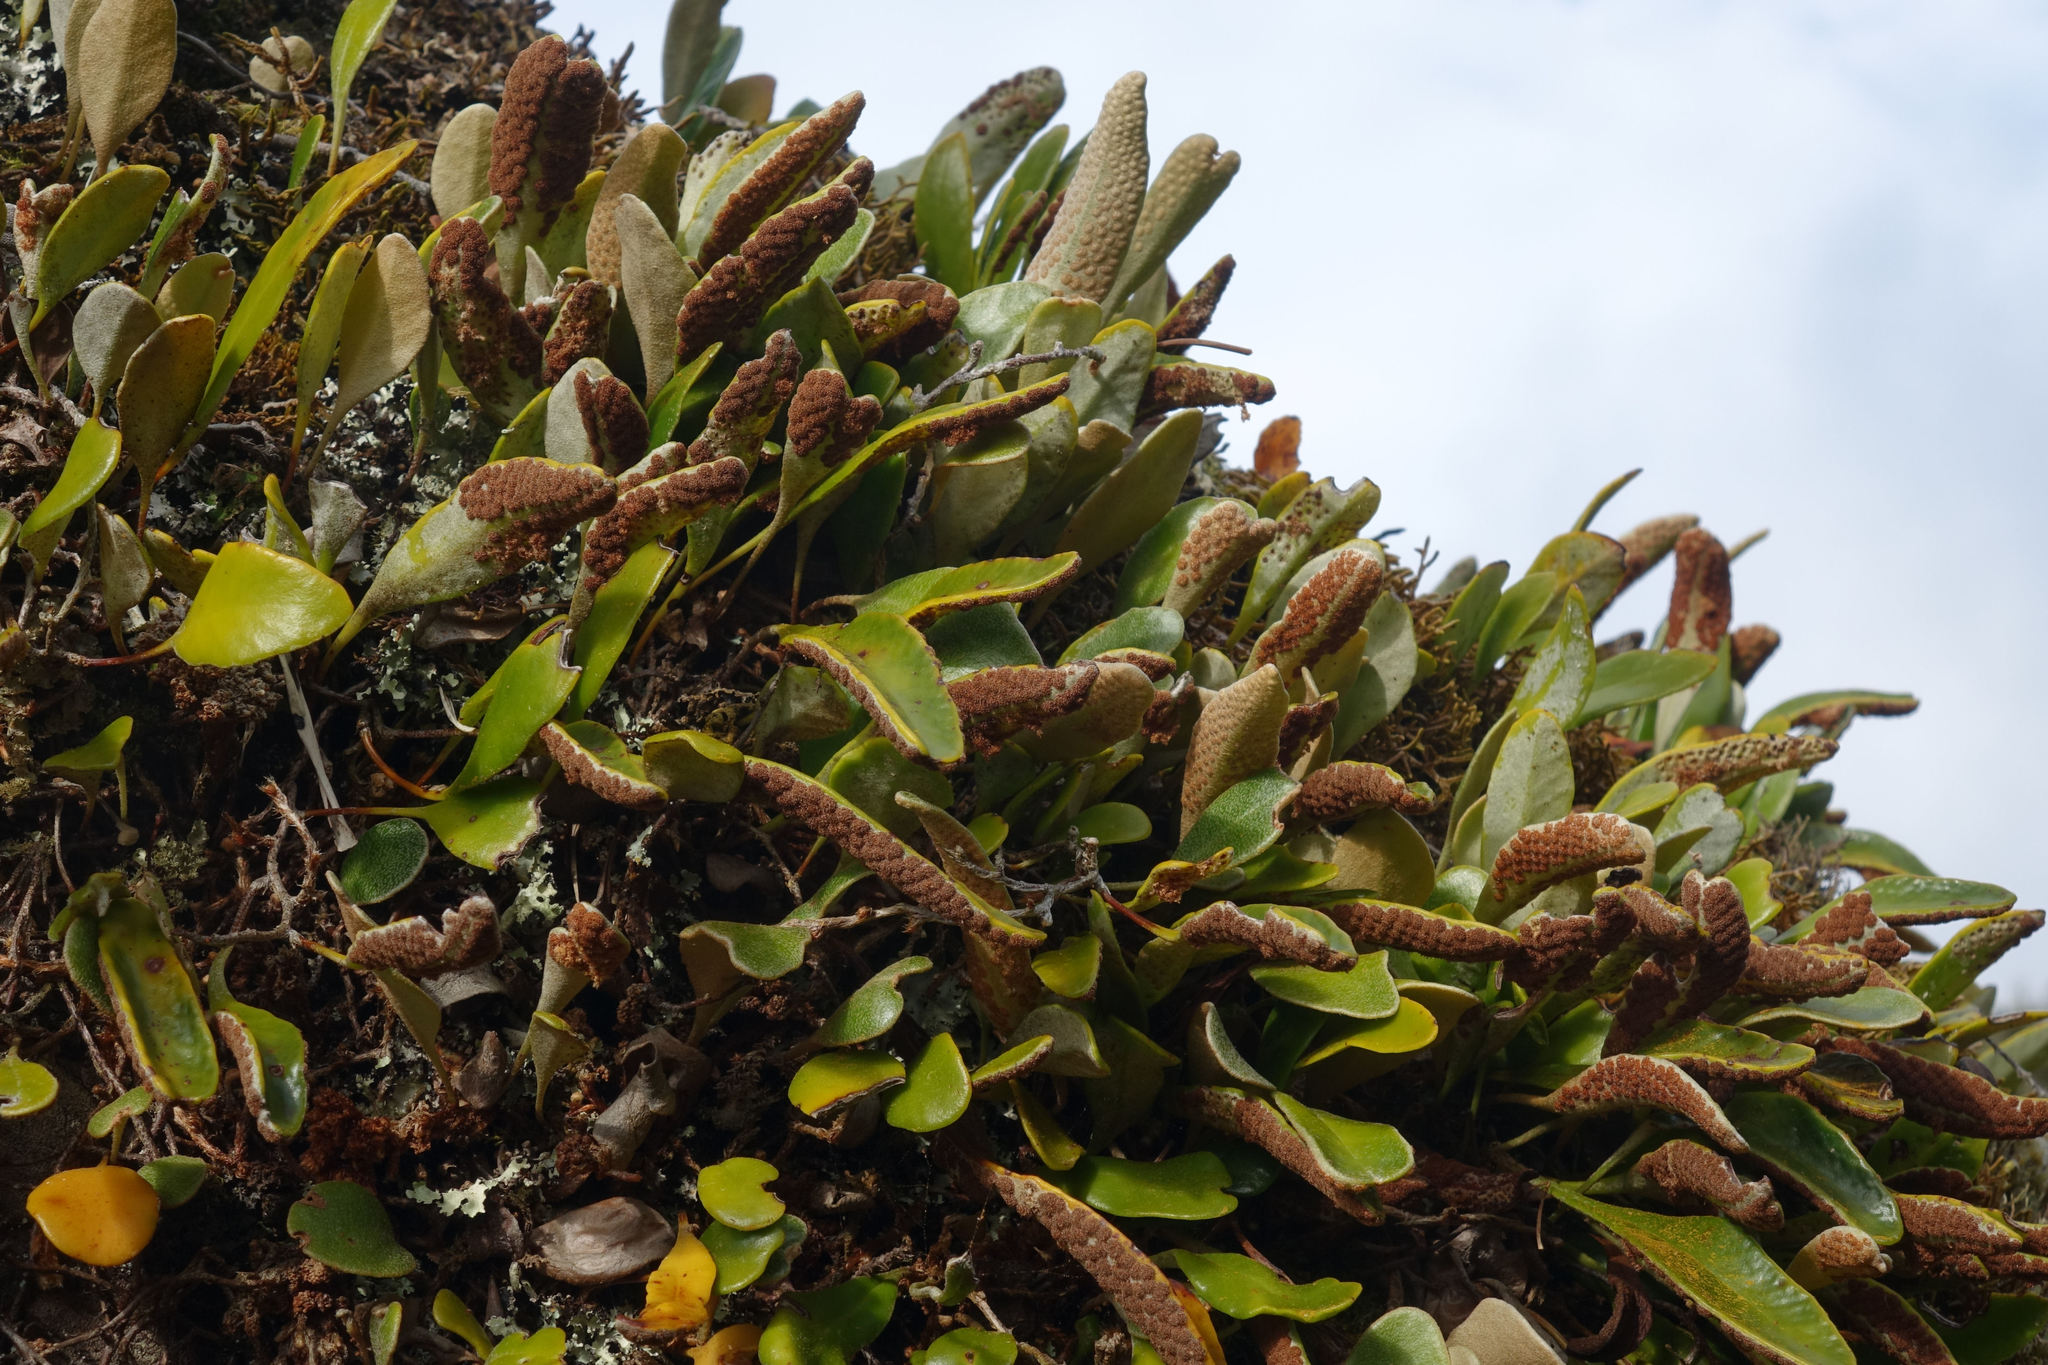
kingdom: Plantae
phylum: Tracheophyta
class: Polypodiopsida
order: Polypodiales
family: Polypodiaceae
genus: Pyrrosia
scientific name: Pyrrosia eleagnifolia
